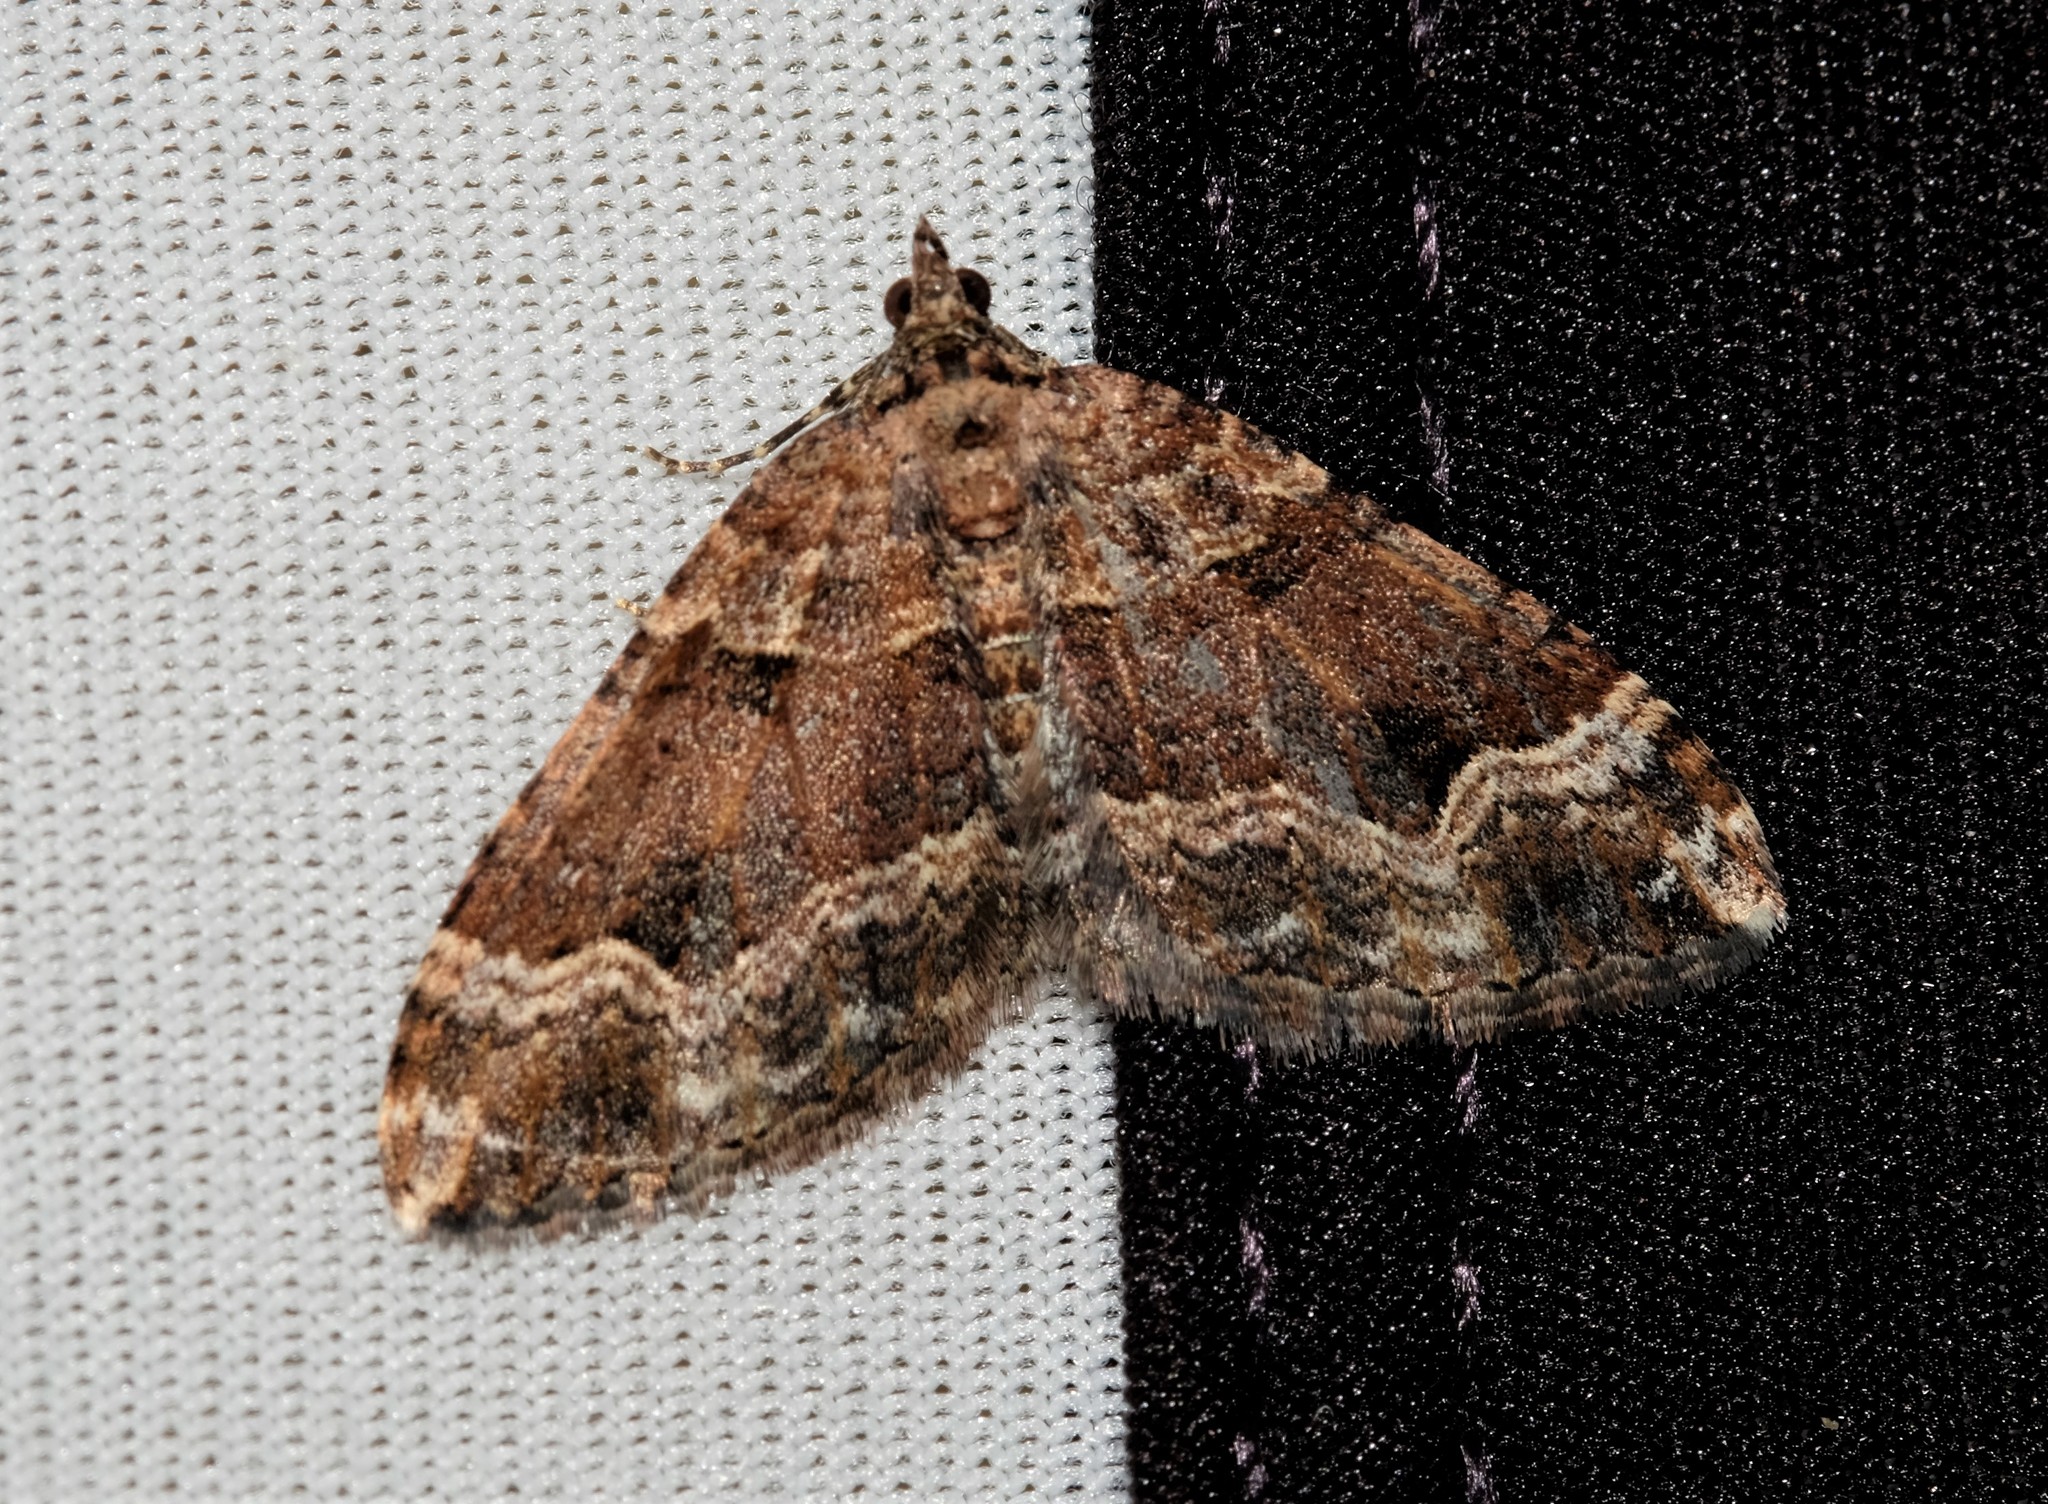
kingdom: Animalia
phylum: Arthropoda
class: Insecta
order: Lepidoptera
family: Geometridae
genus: Epyaxa
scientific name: Epyaxa subidaria
